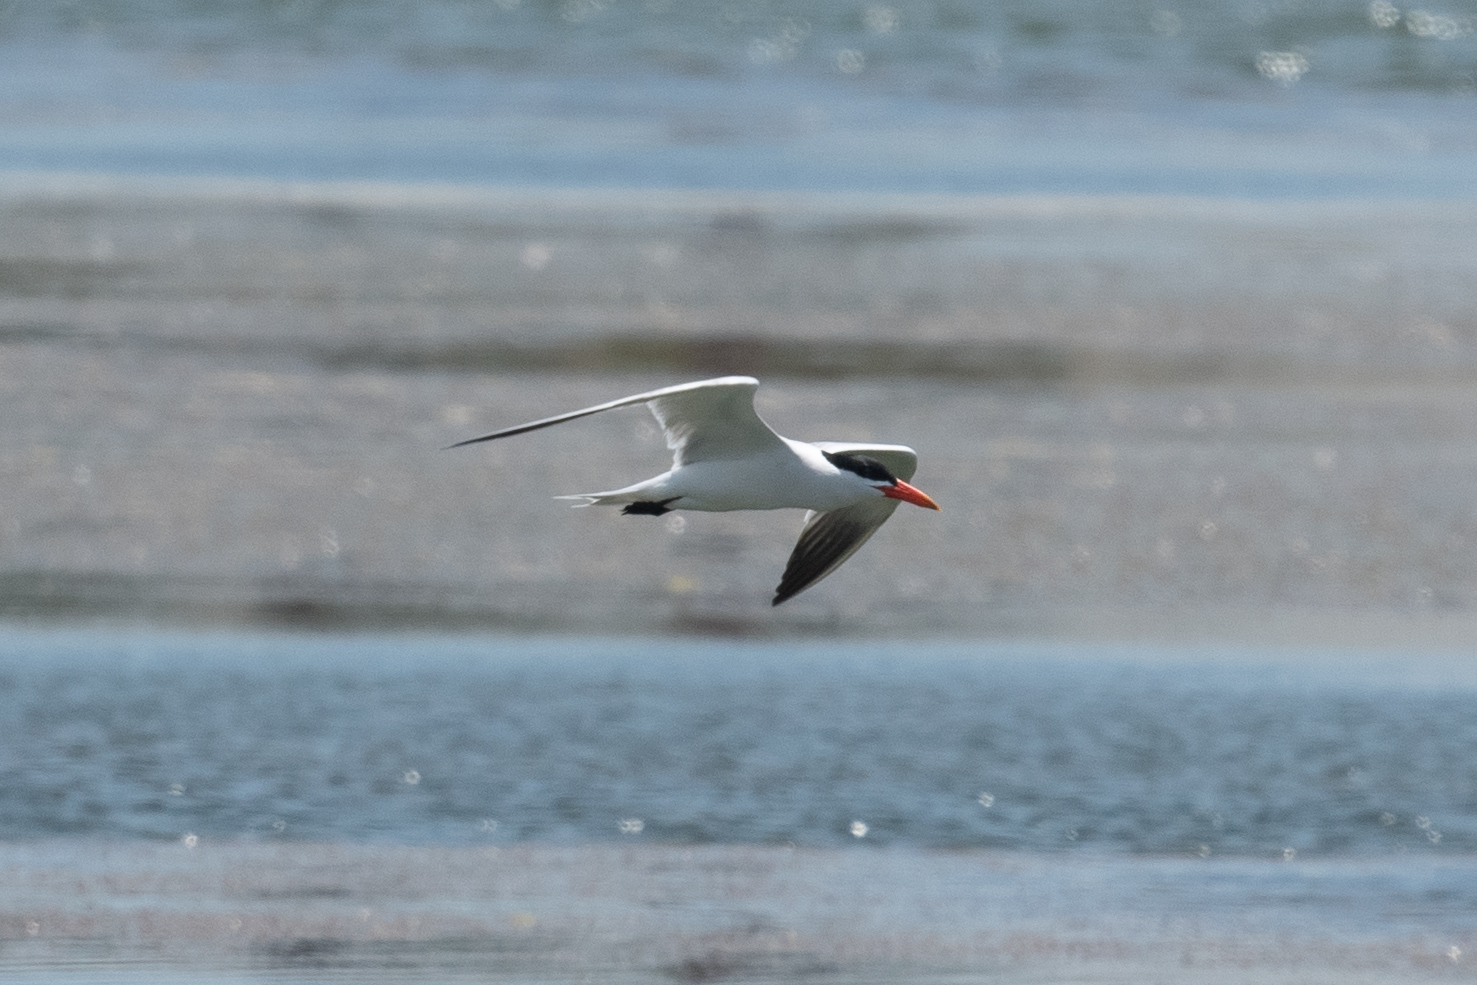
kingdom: Animalia
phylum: Chordata
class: Aves
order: Charadriiformes
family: Laridae
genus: Hydroprogne
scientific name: Hydroprogne caspia
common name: Caspian tern
